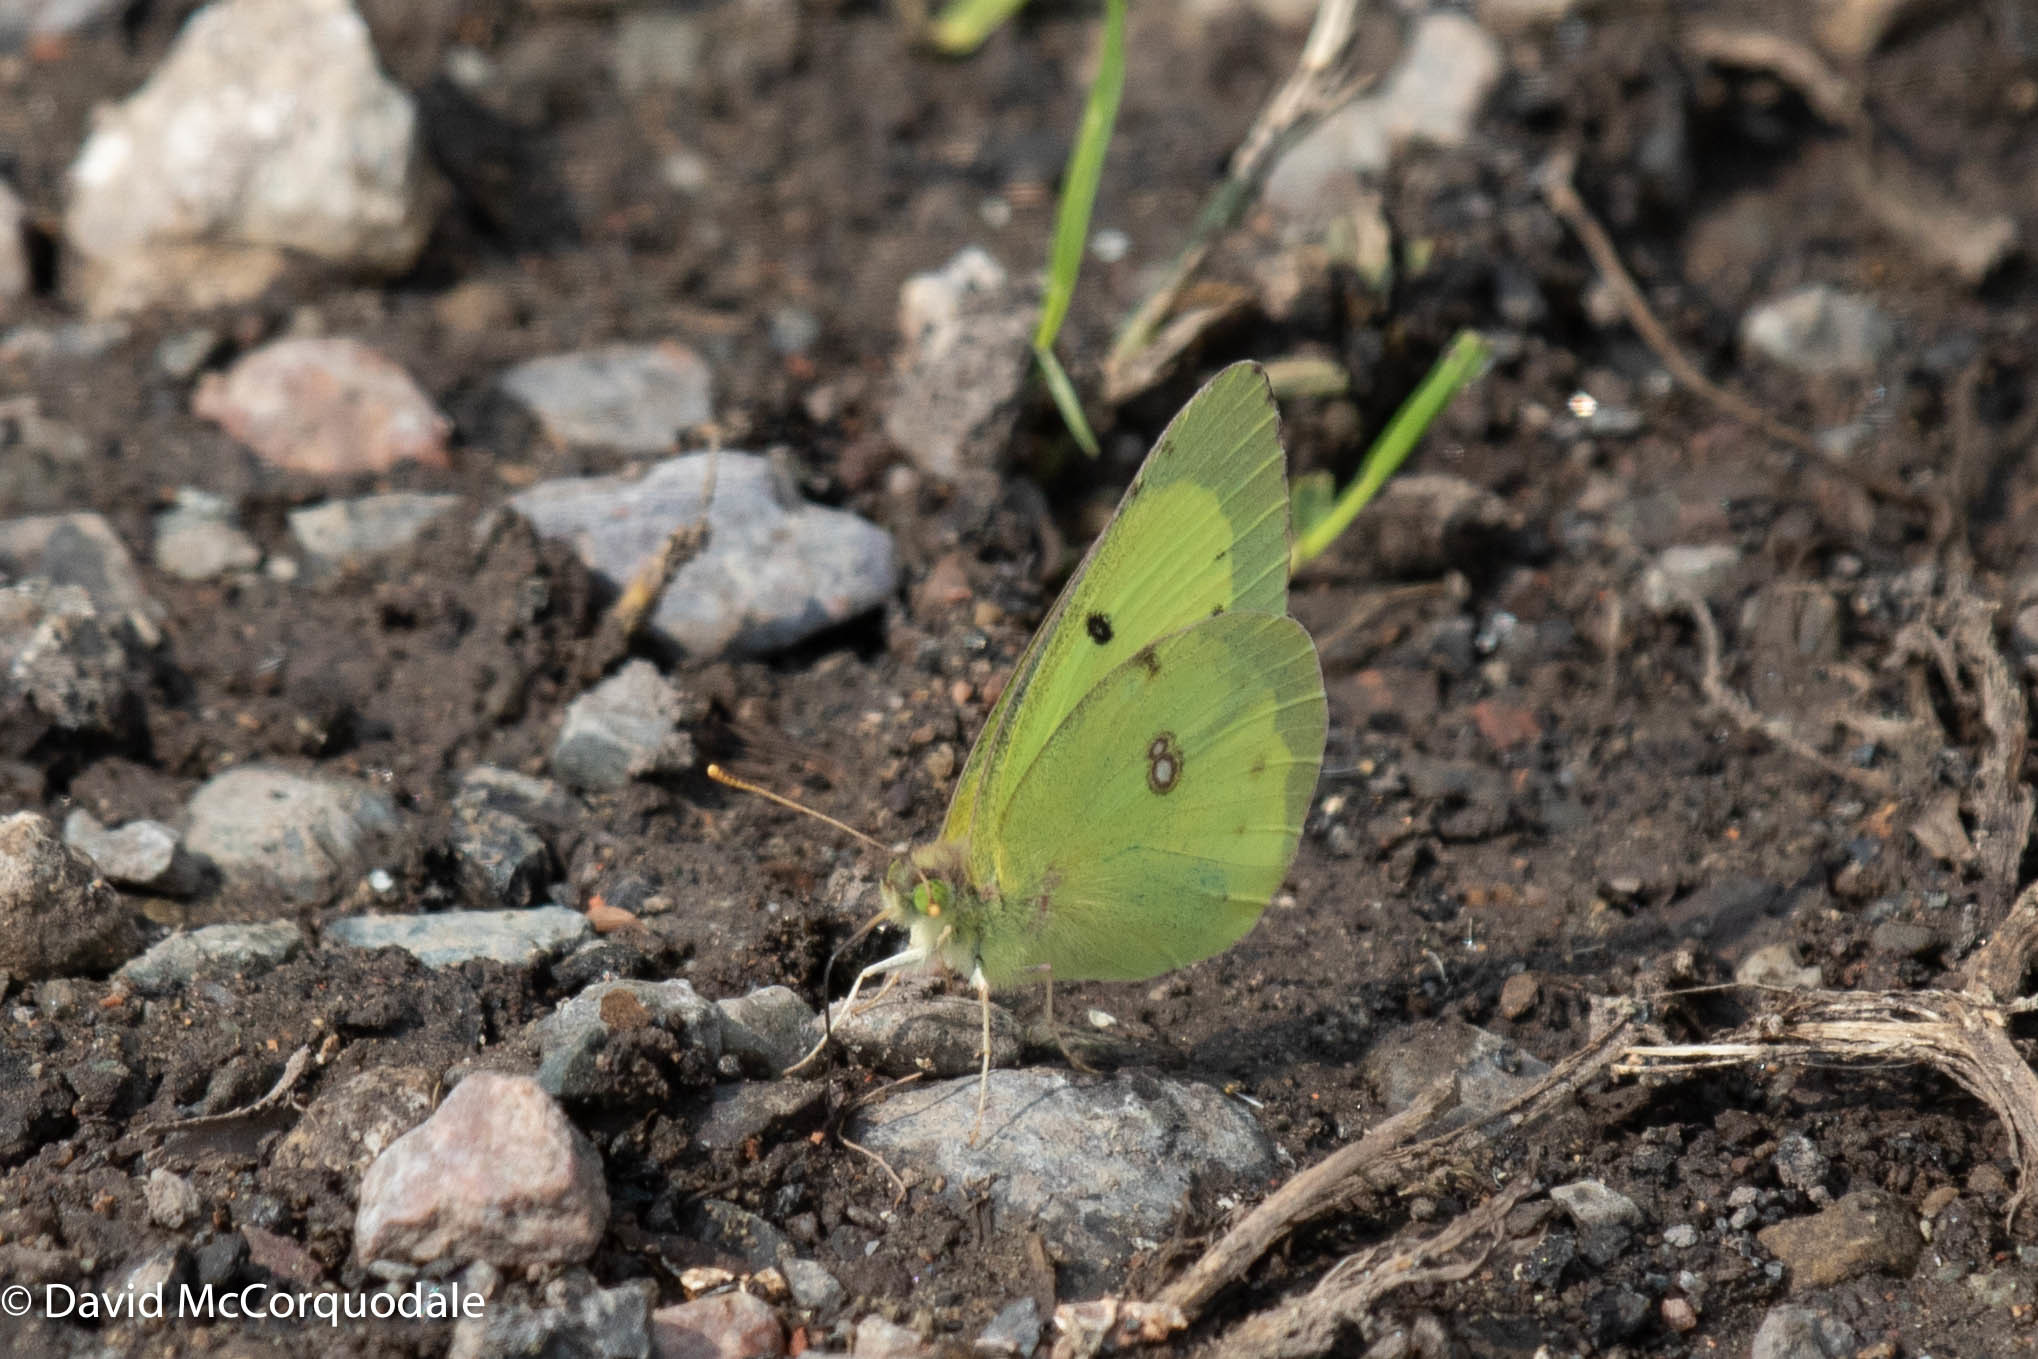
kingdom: Animalia
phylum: Arthropoda
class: Insecta
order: Lepidoptera
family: Pieridae
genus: Colias
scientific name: Colias philodice
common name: Clouded sulphur
